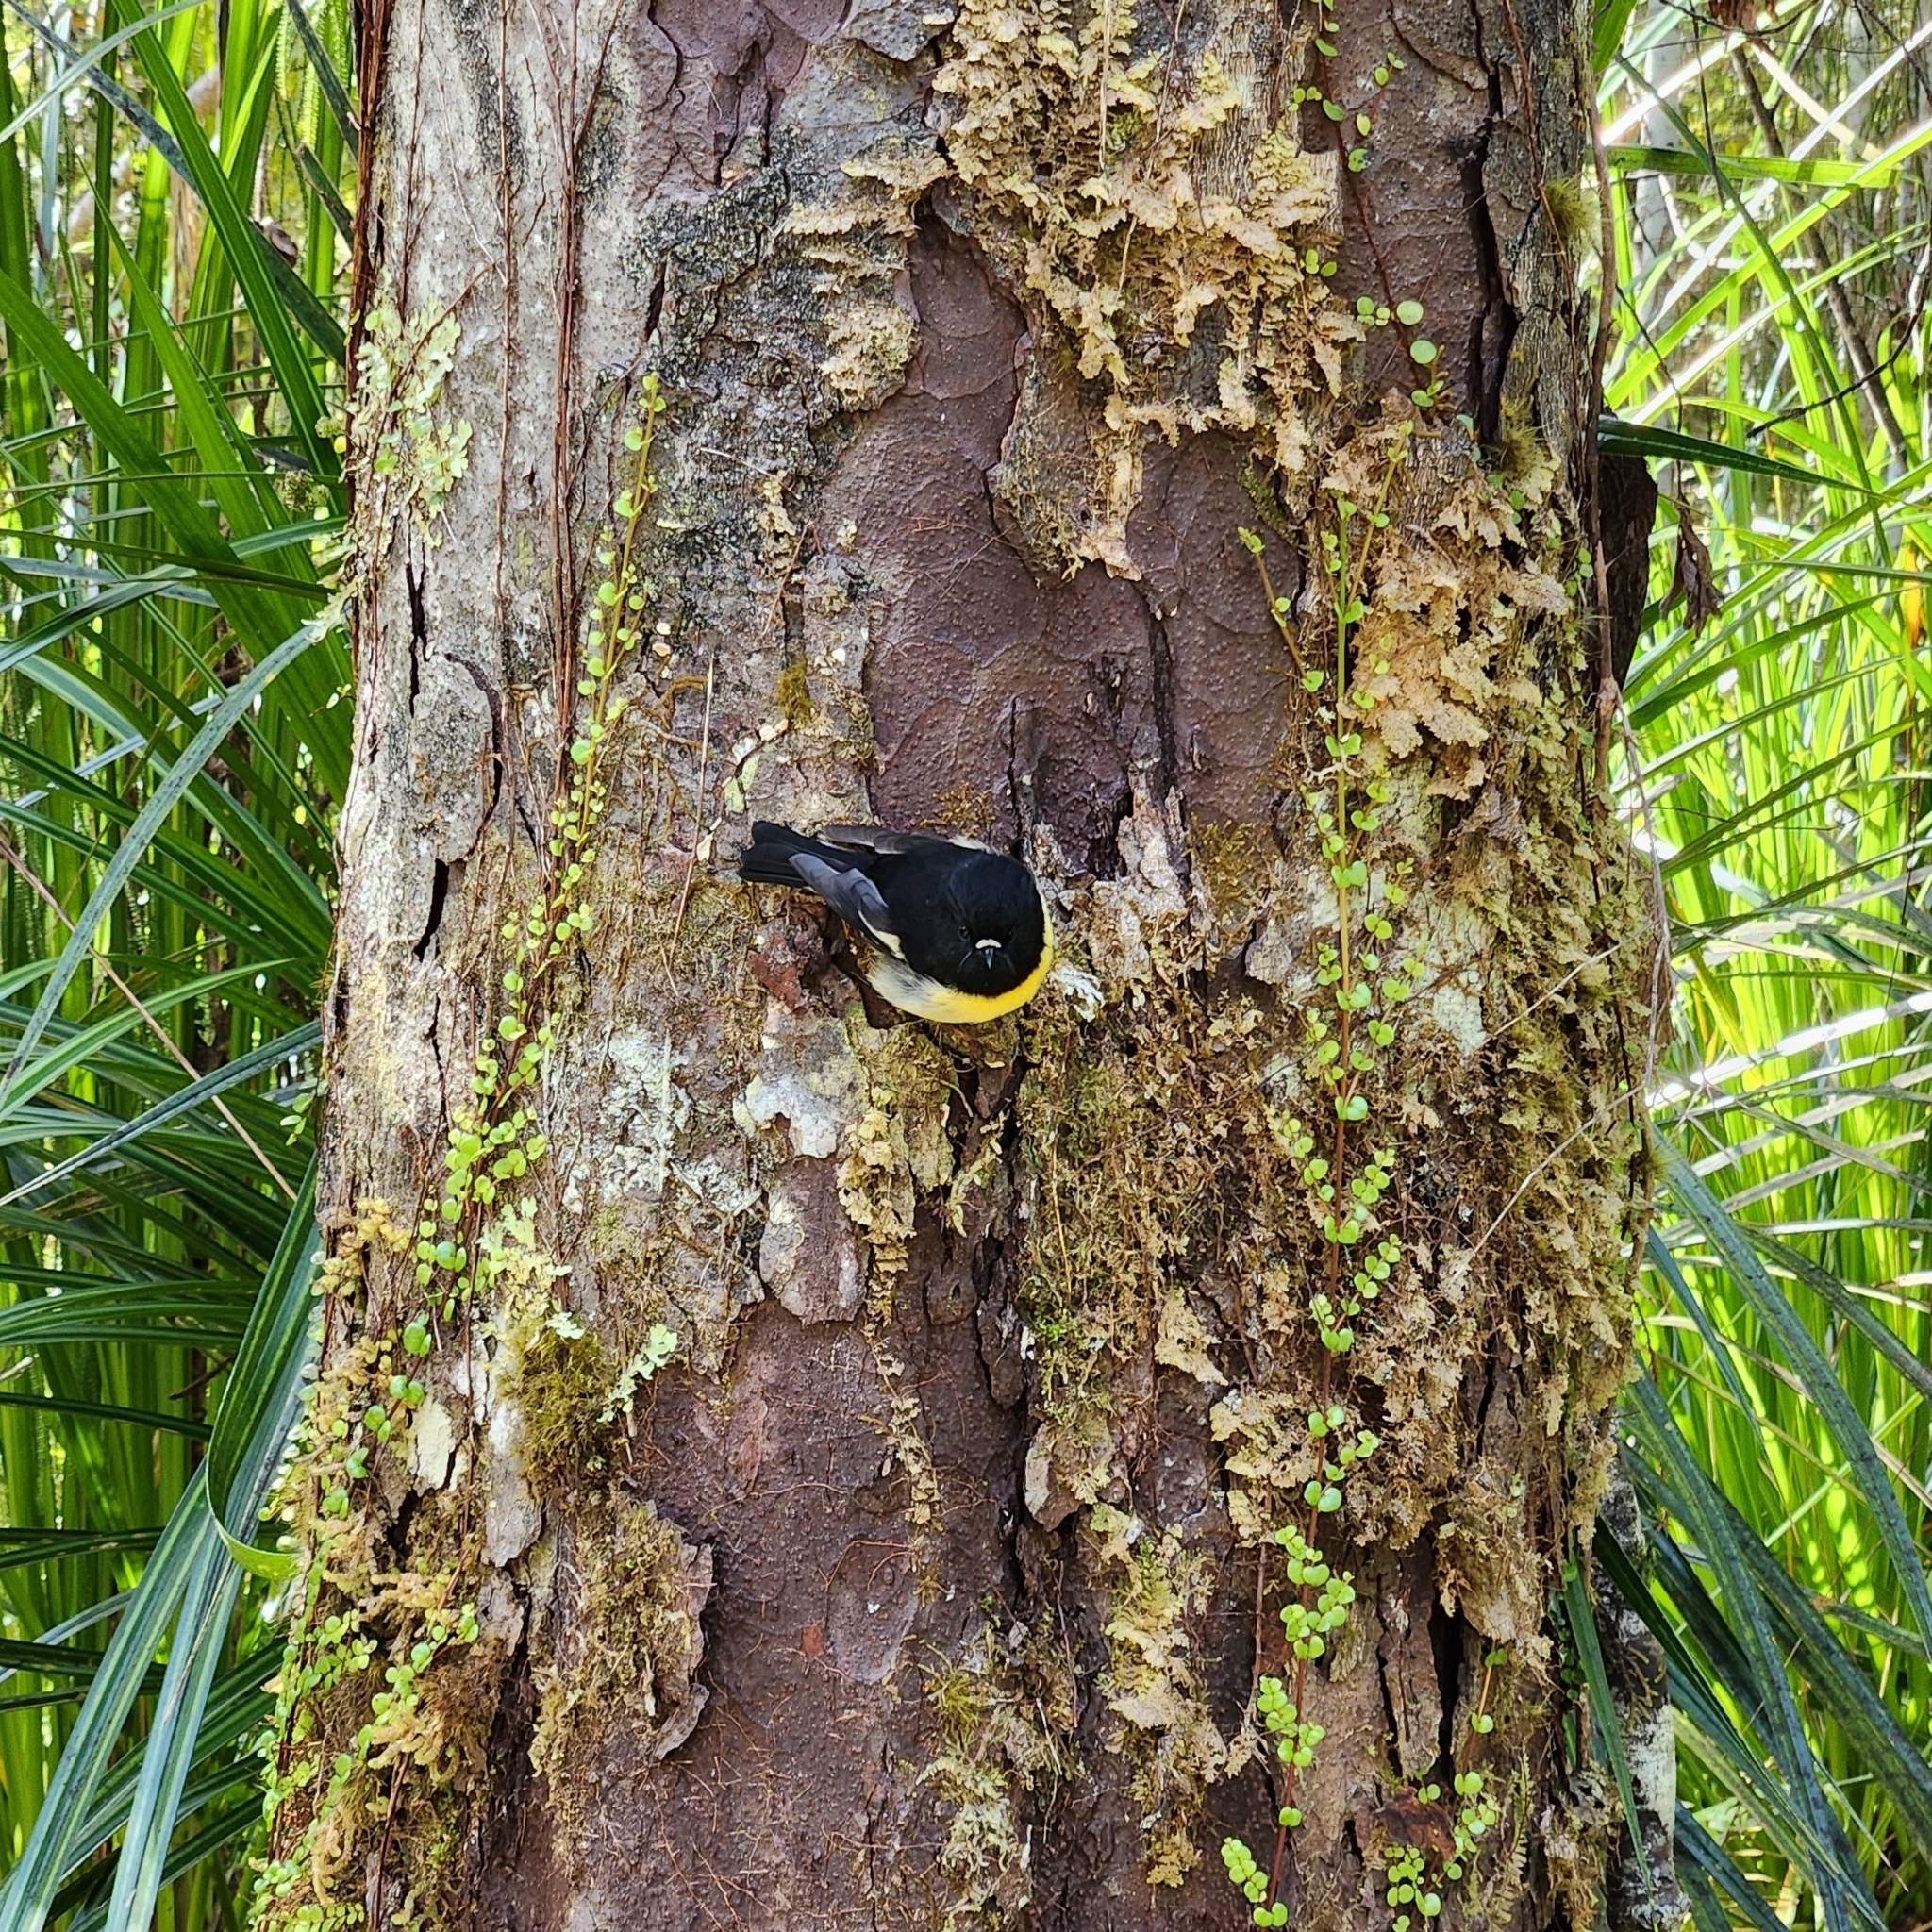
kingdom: Animalia
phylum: Chordata
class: Aves
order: Passeriformes
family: Petroicidae
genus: Petroica
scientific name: Petroica macrocephala
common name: Tomtit
